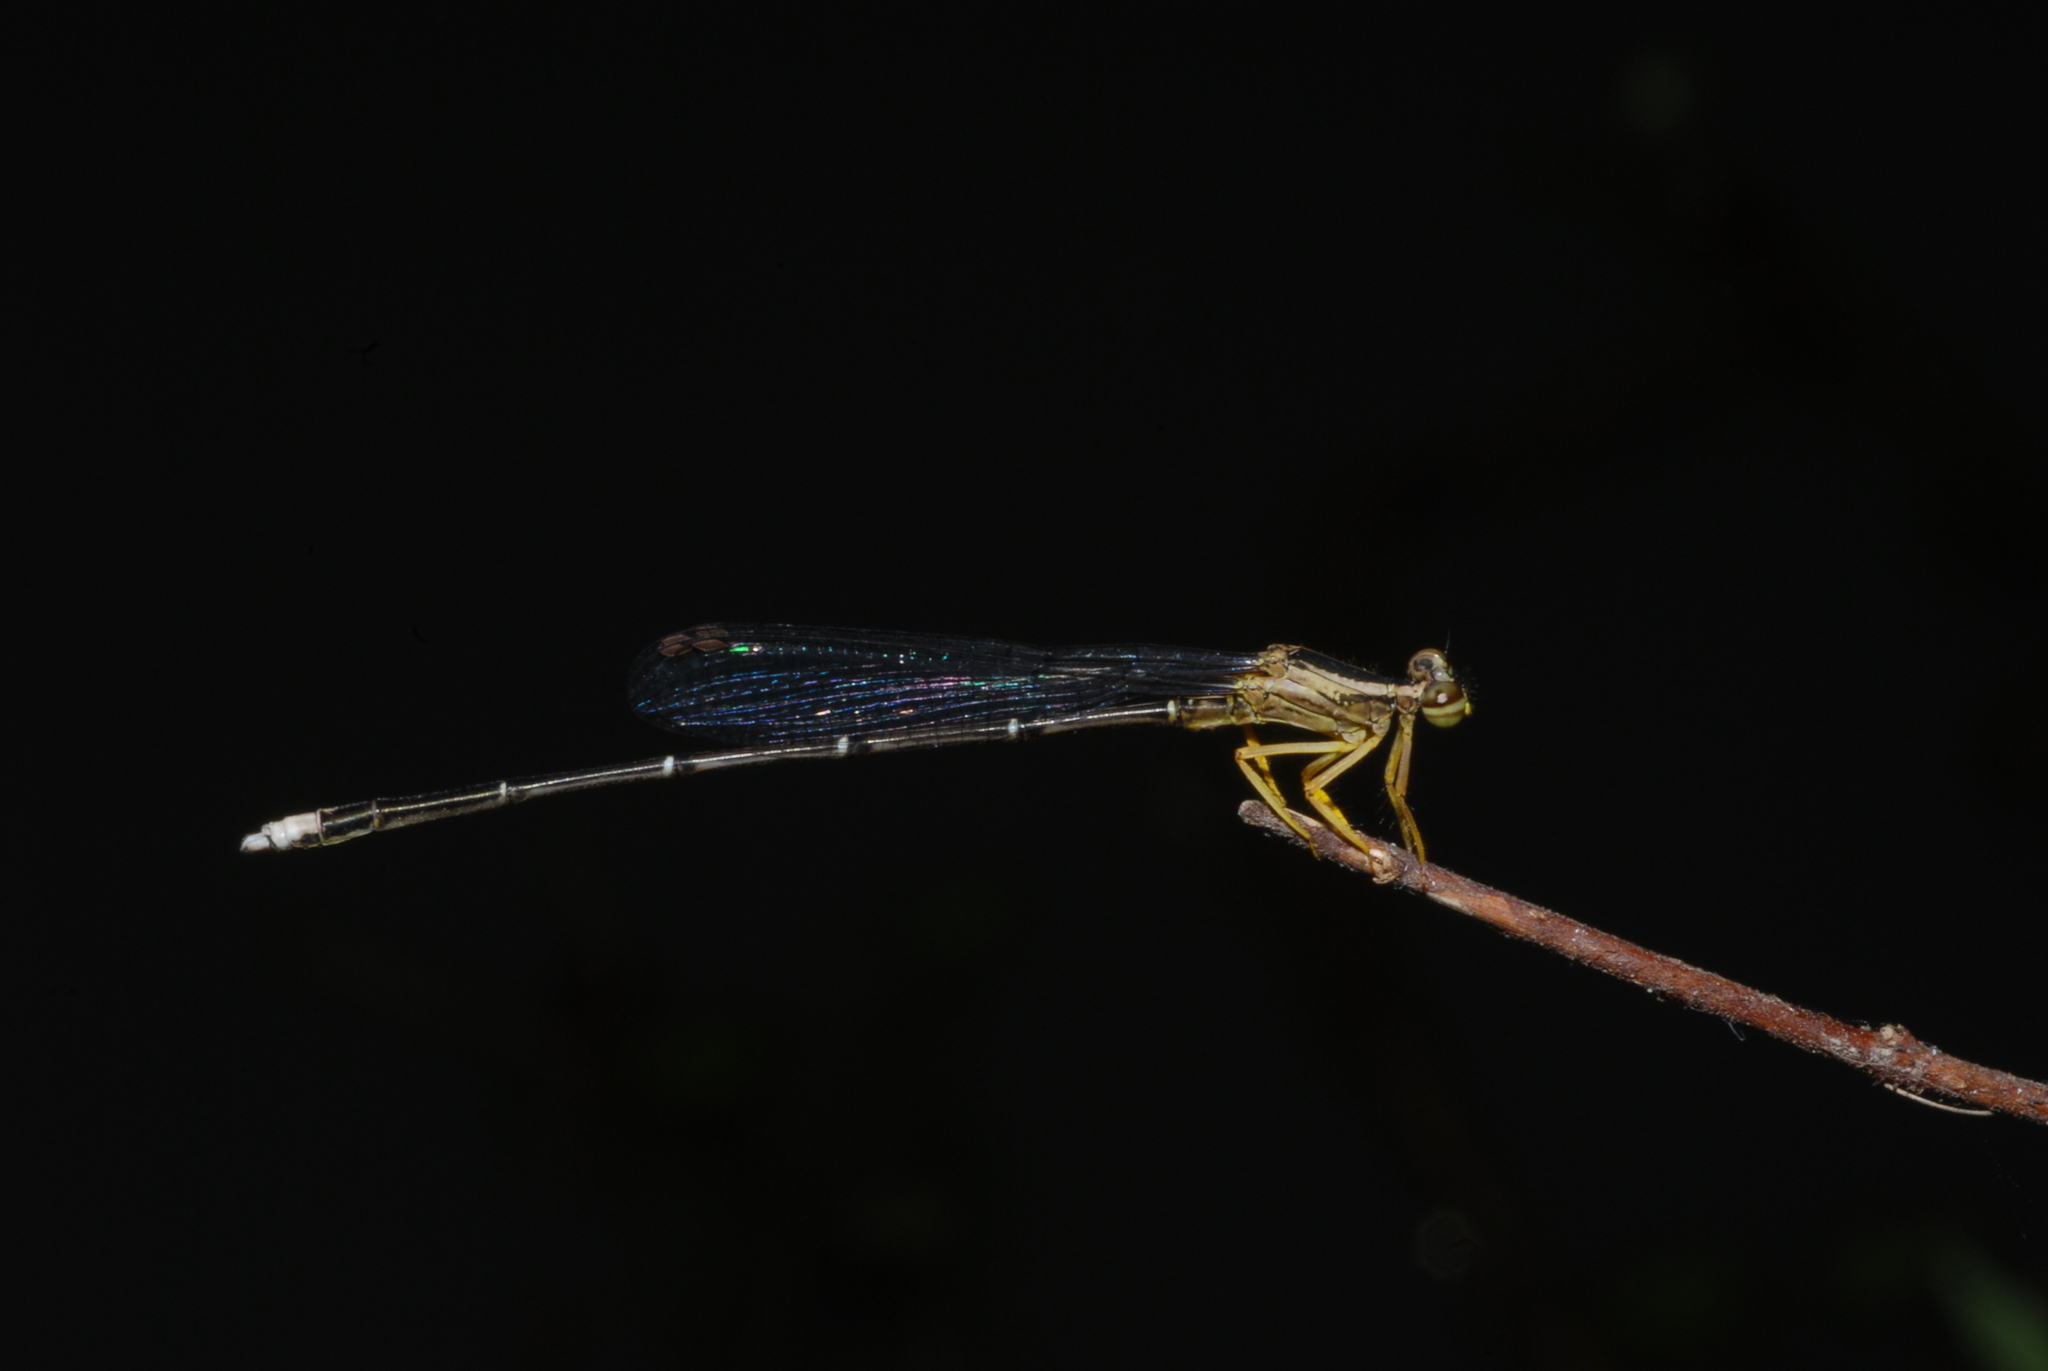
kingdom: Animalia
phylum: Arthropoda
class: Insecta
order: Odonata
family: Platycnemididae
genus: Copera
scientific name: Copera marginipes
